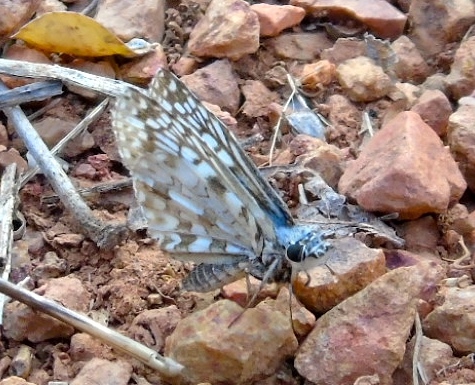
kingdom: Animalia
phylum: Arthropoda
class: Insecta
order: Lepidoptera
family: Hesperiidae
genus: Burnsius
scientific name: Burnsius
